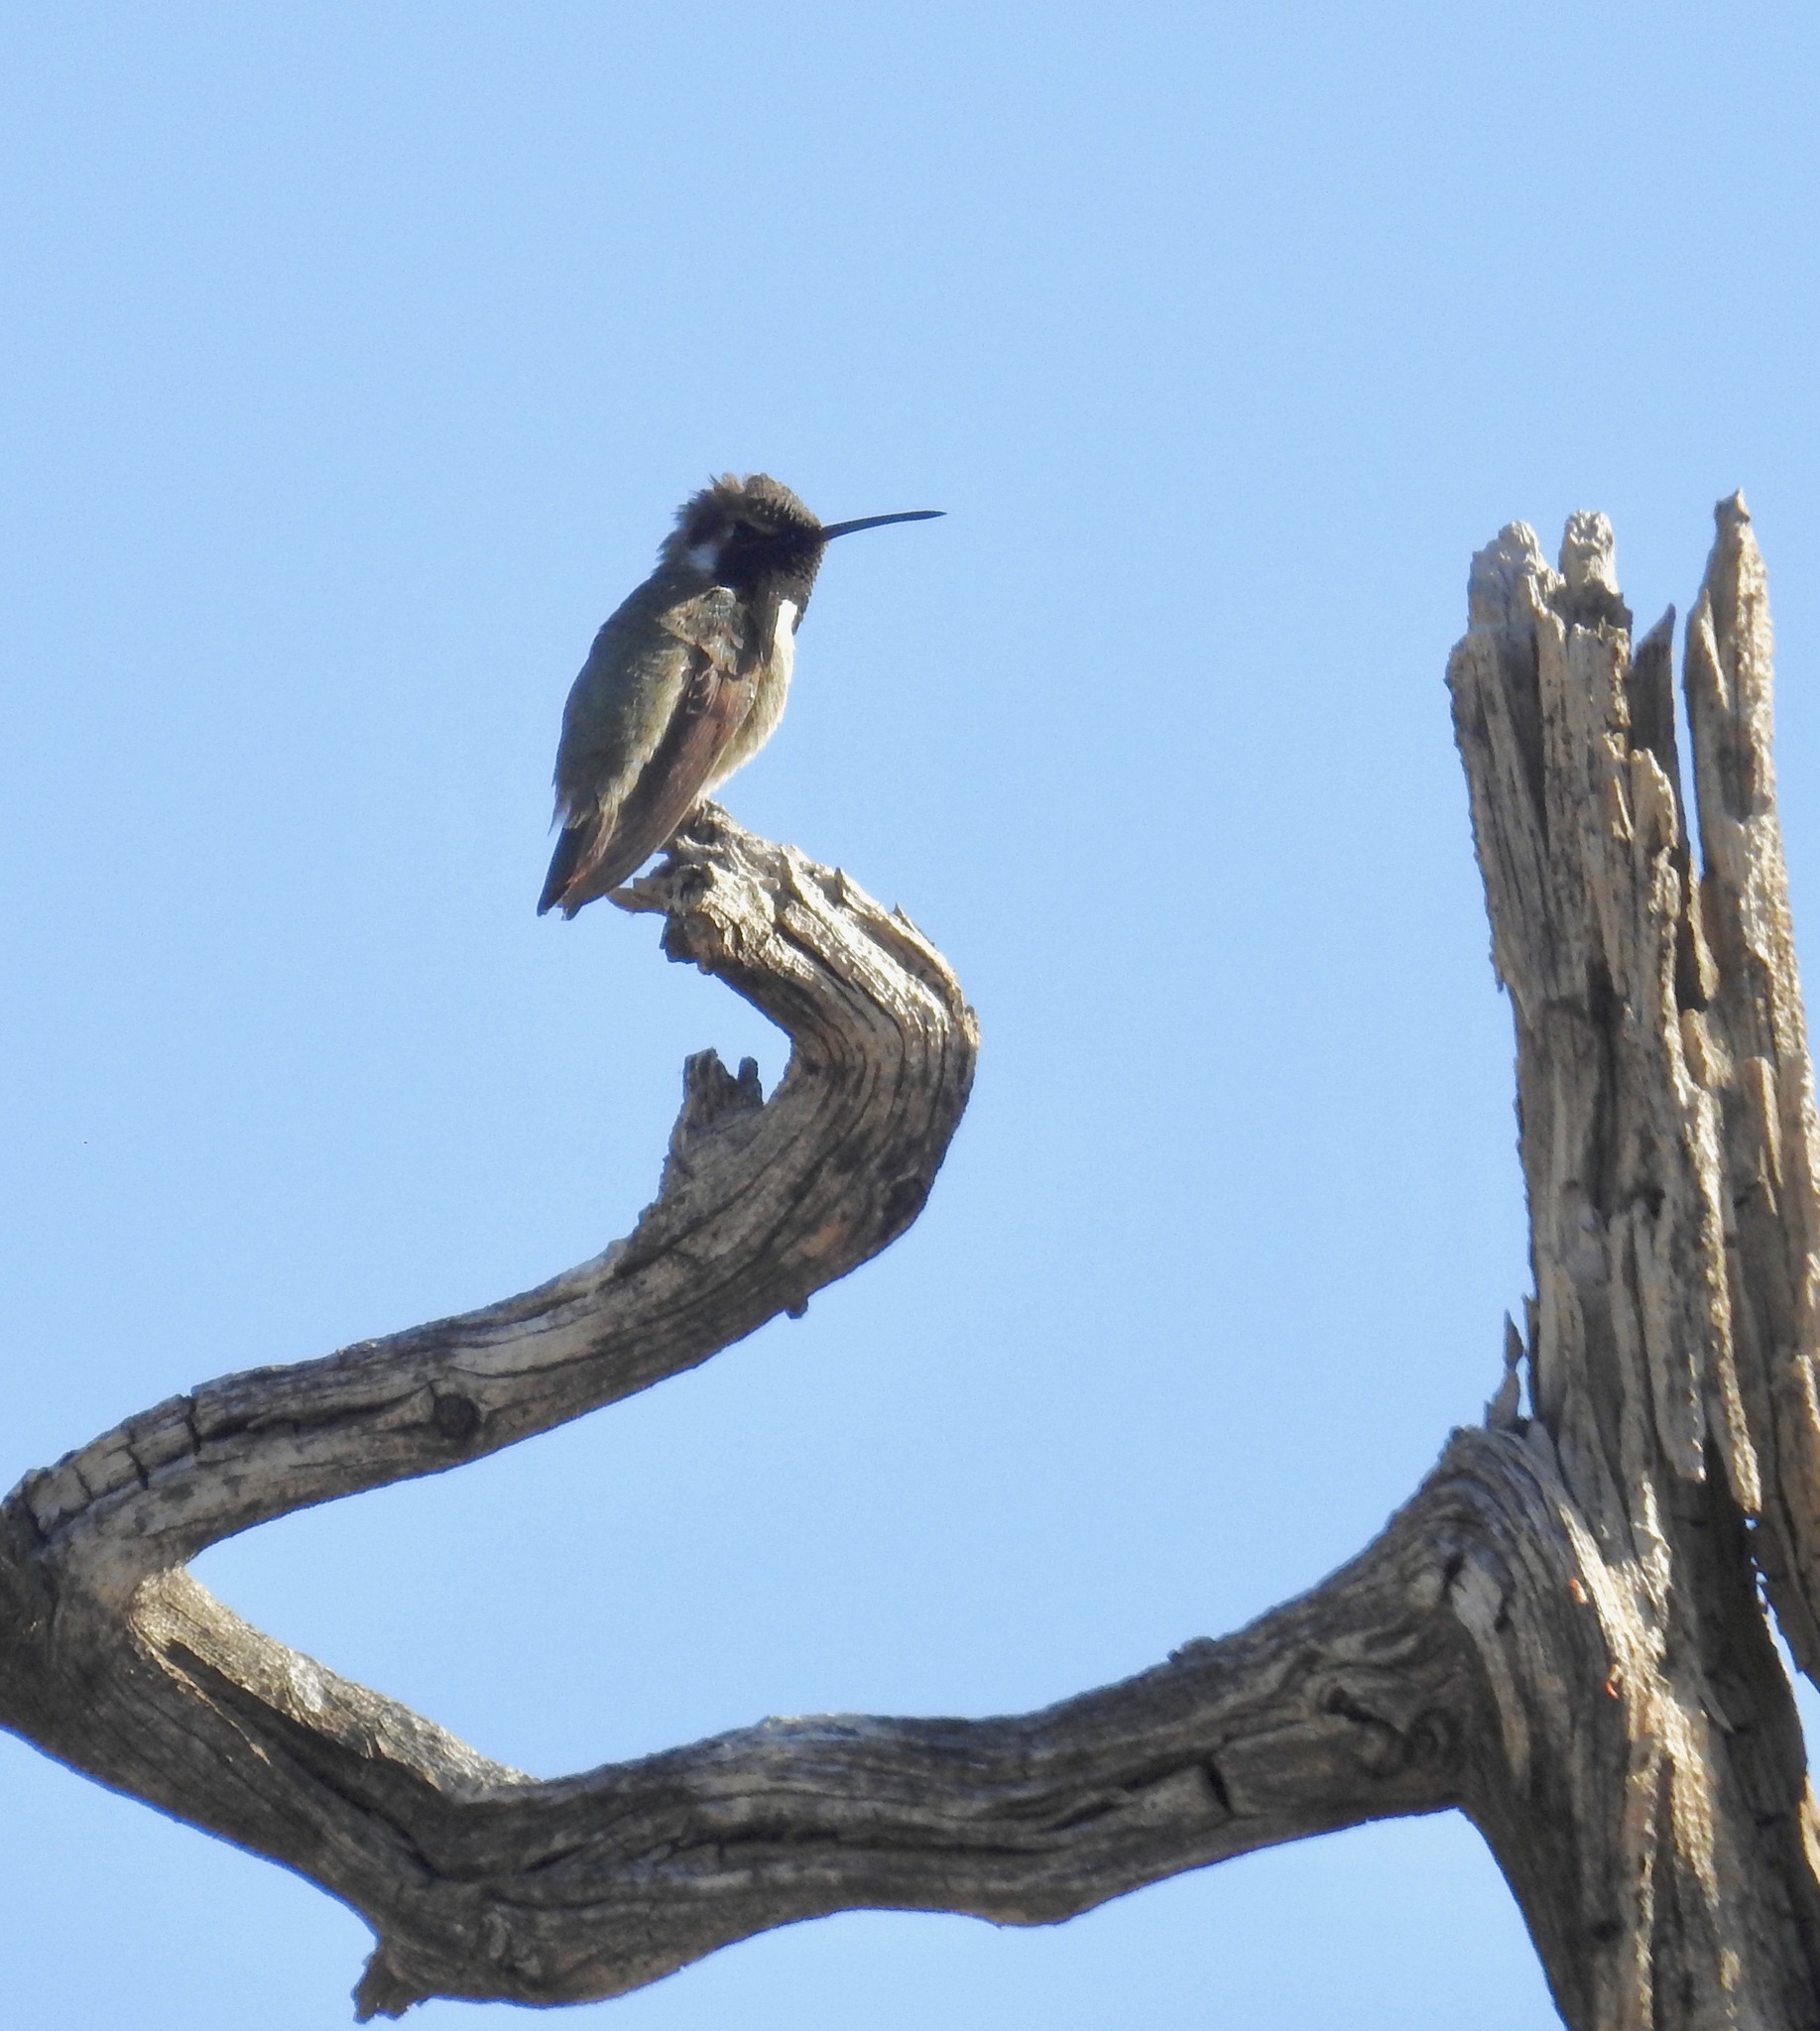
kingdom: Animalia
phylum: Chordata
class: Aves
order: Apodiformes
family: Trochilidae
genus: Calypte
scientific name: Calypte costae
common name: Costa's hummingbird
